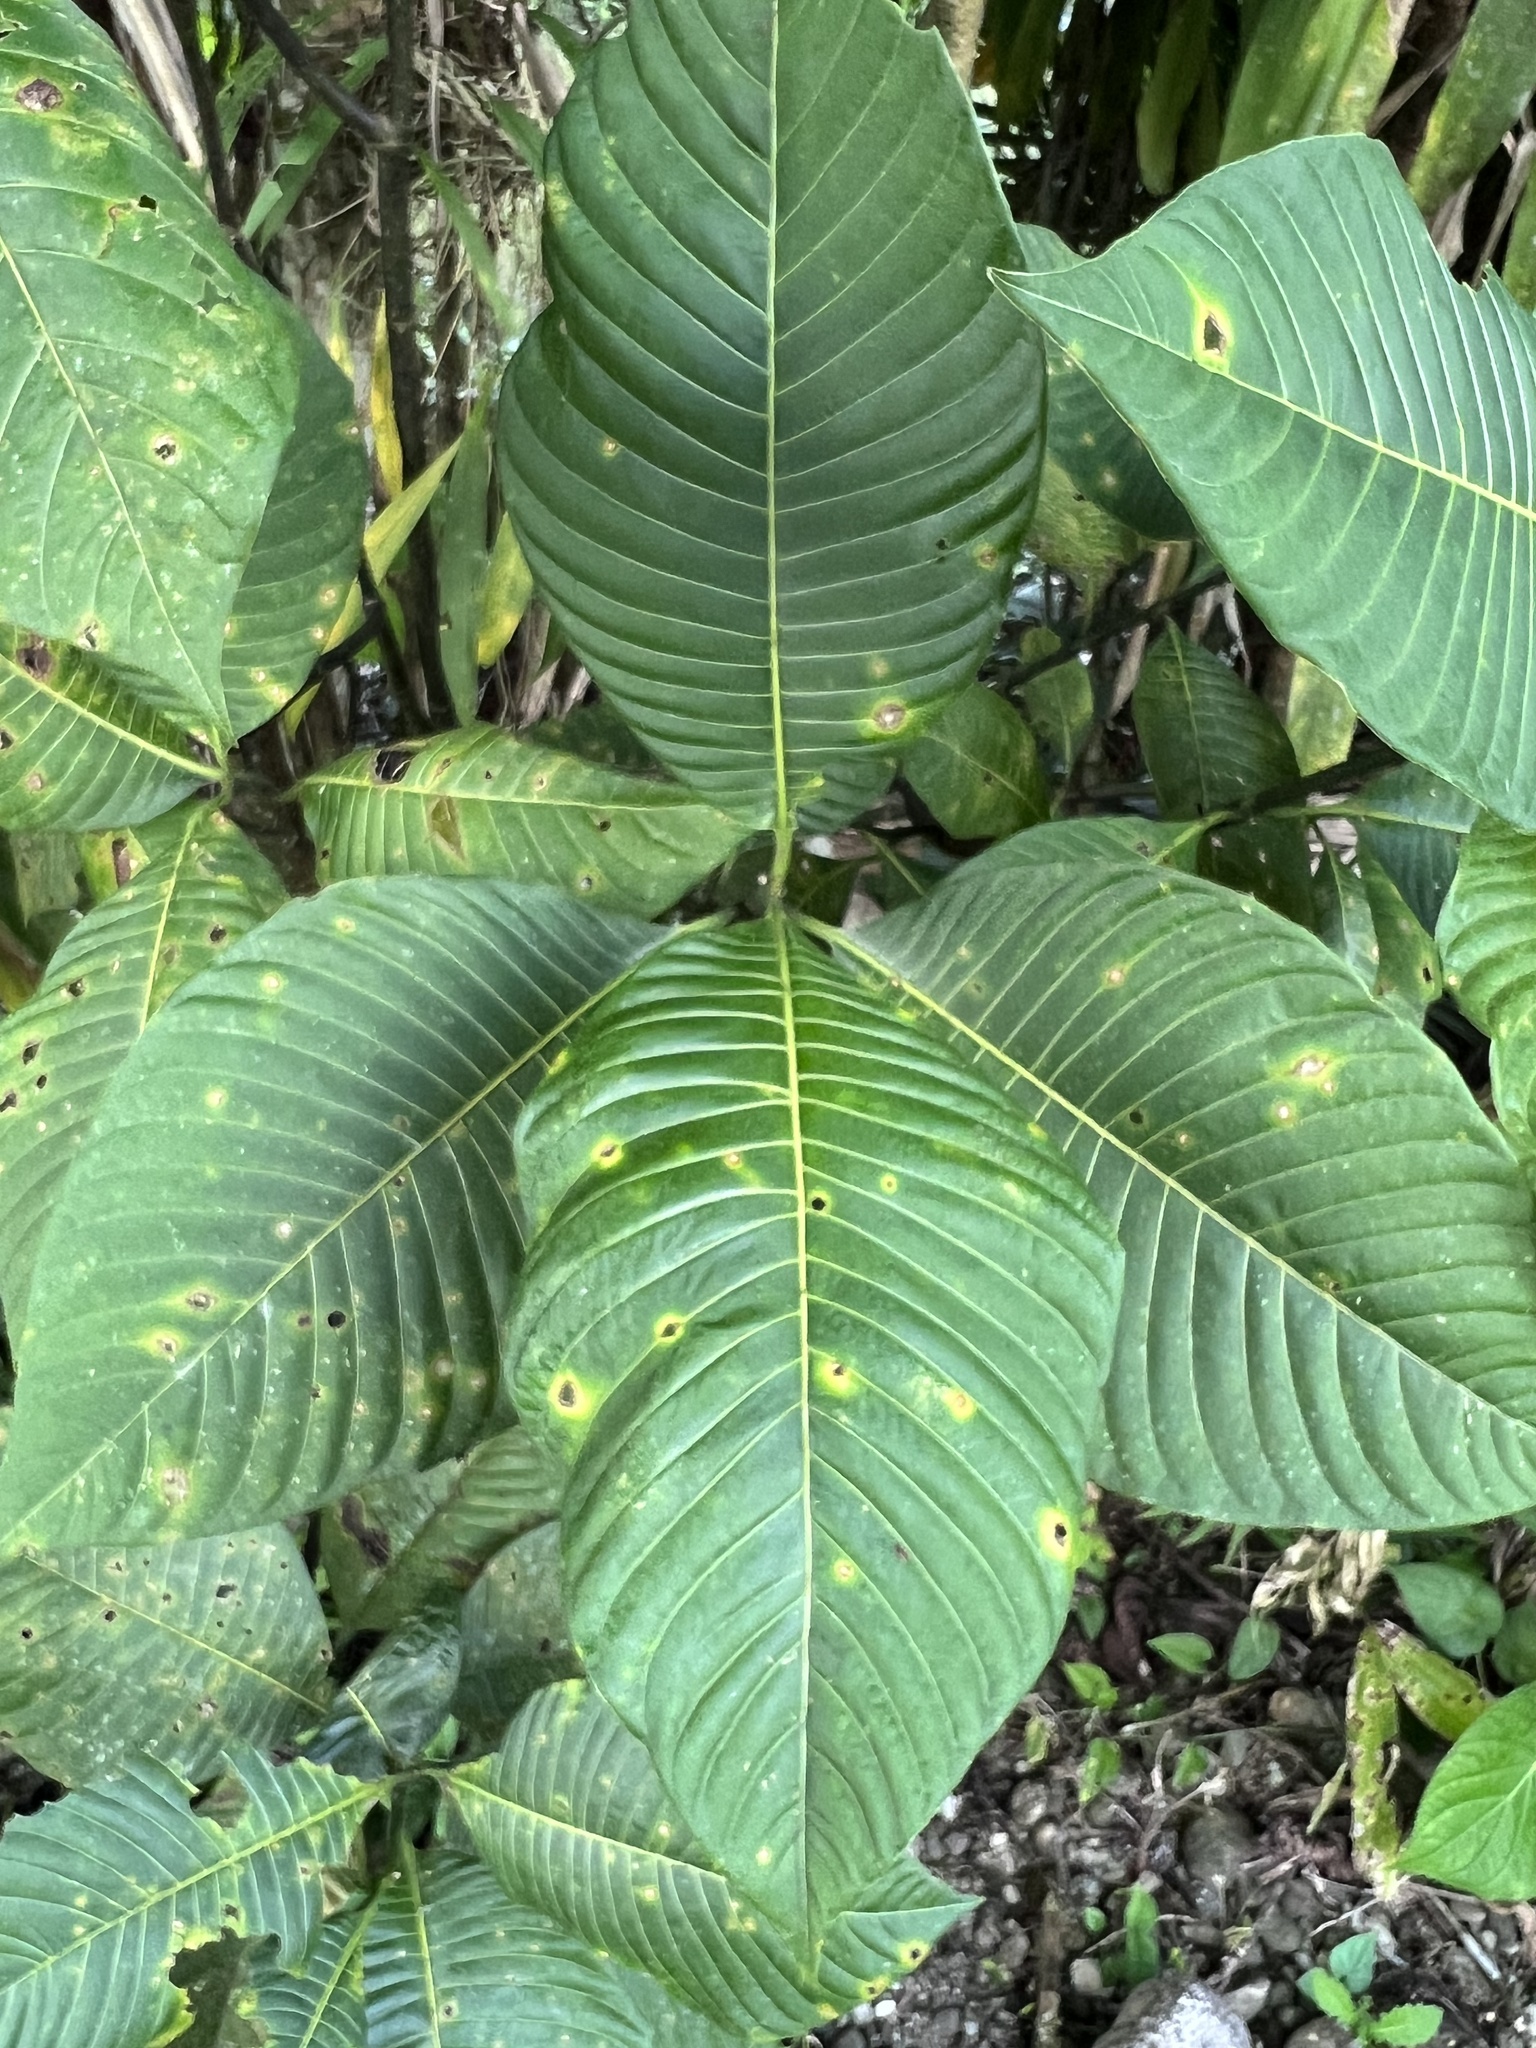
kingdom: Plantae
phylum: Tracheophyta
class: Magnoliopsida
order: Gentianales
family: Rubiaceae
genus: Palicourea
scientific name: Palicourea guianensis
